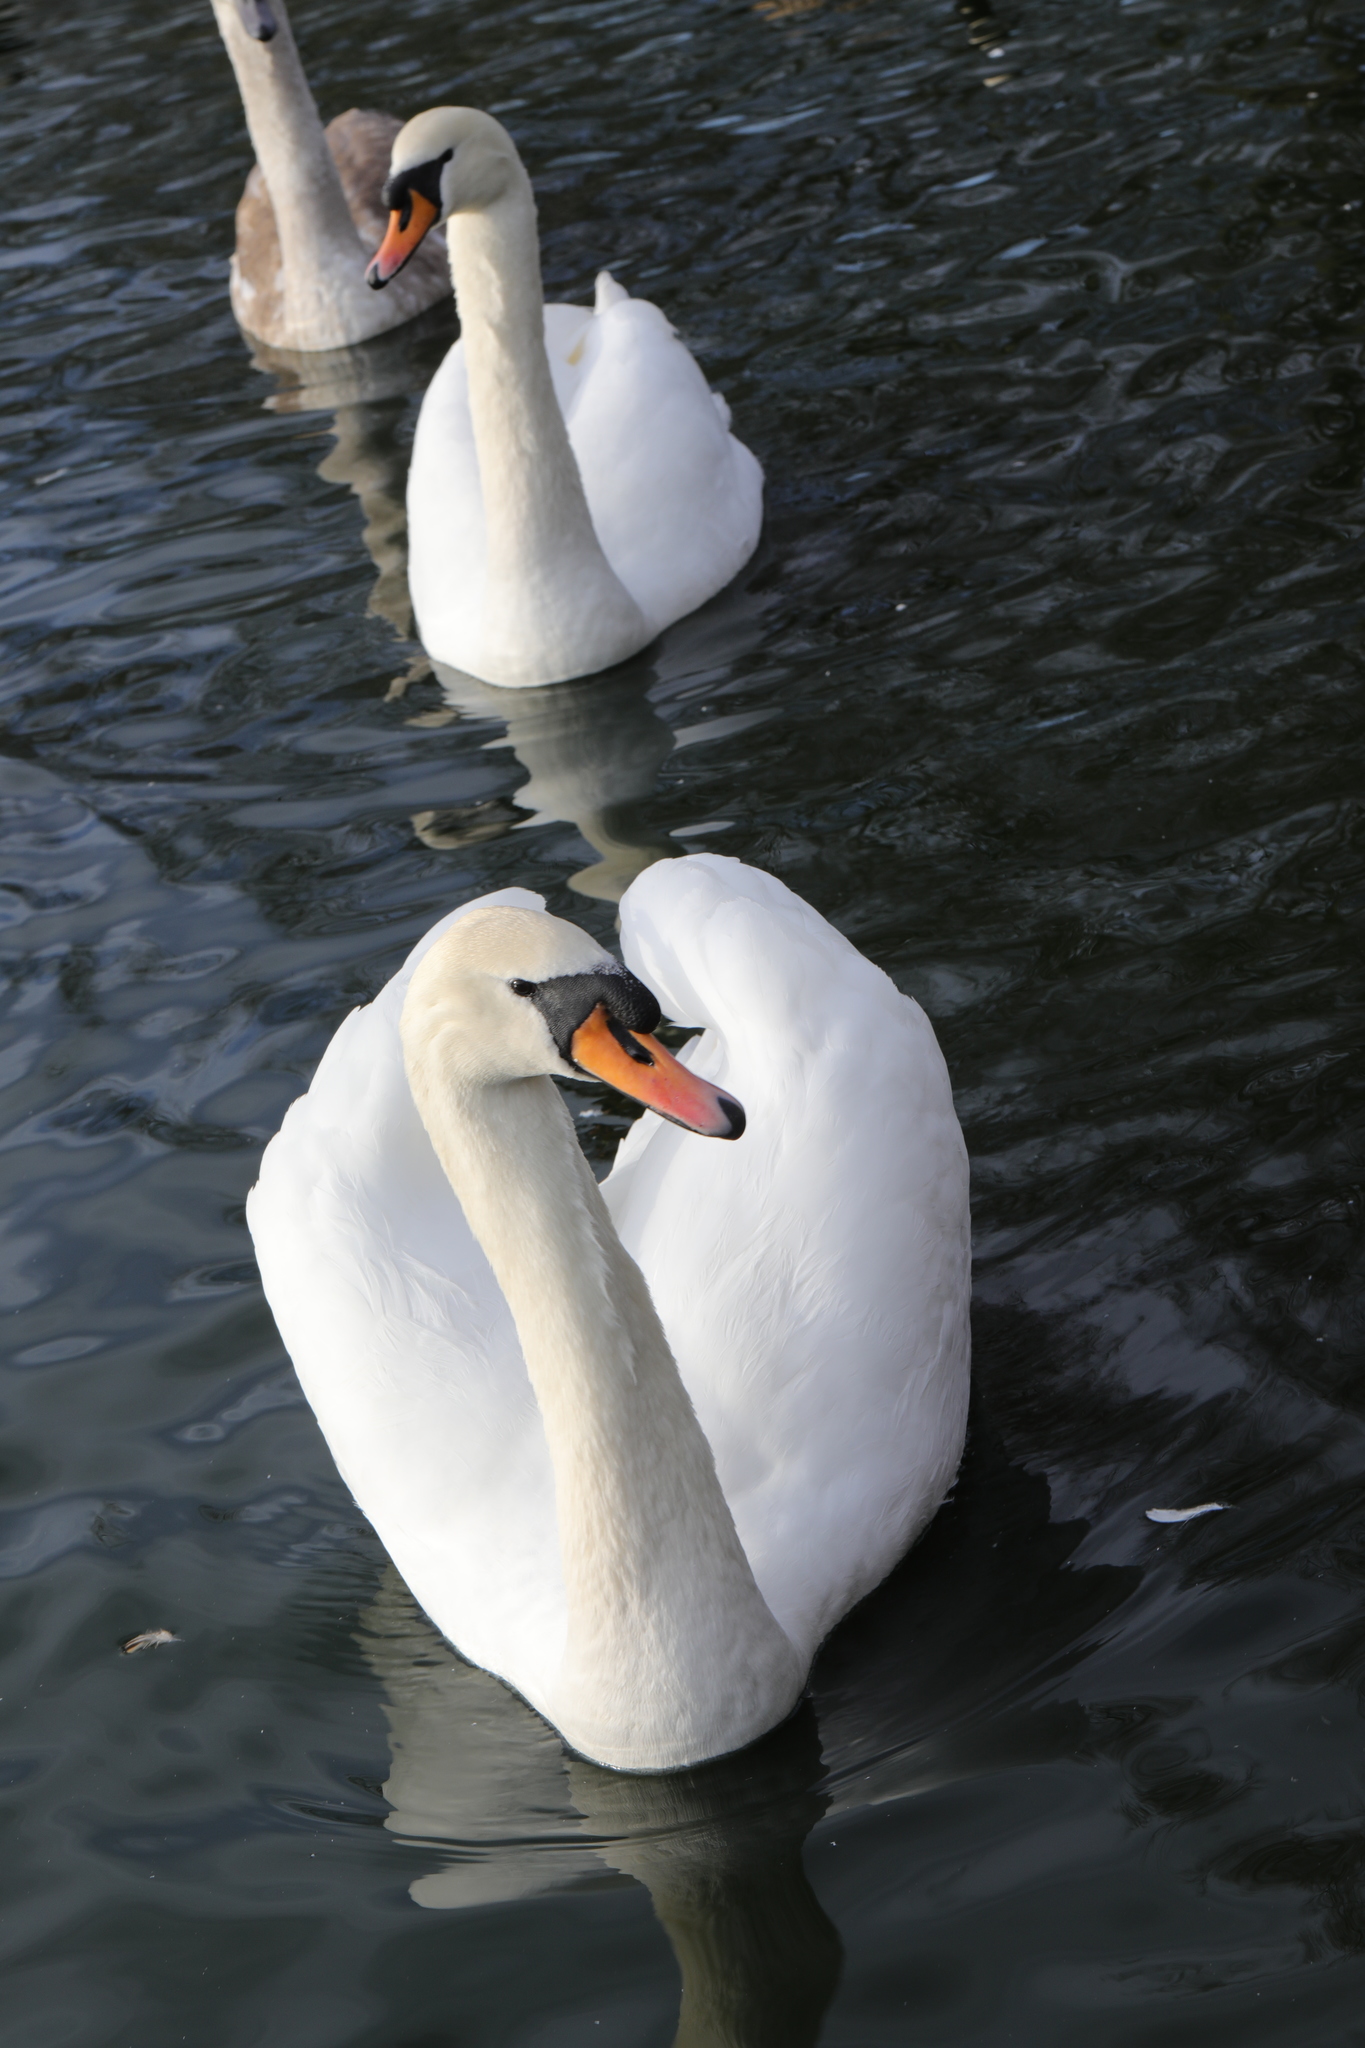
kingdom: Animalia
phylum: Chordata
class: Aves
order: Anseriformes
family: Anatidae
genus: Cygnus
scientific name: Cygnus olor
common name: Mute swan
